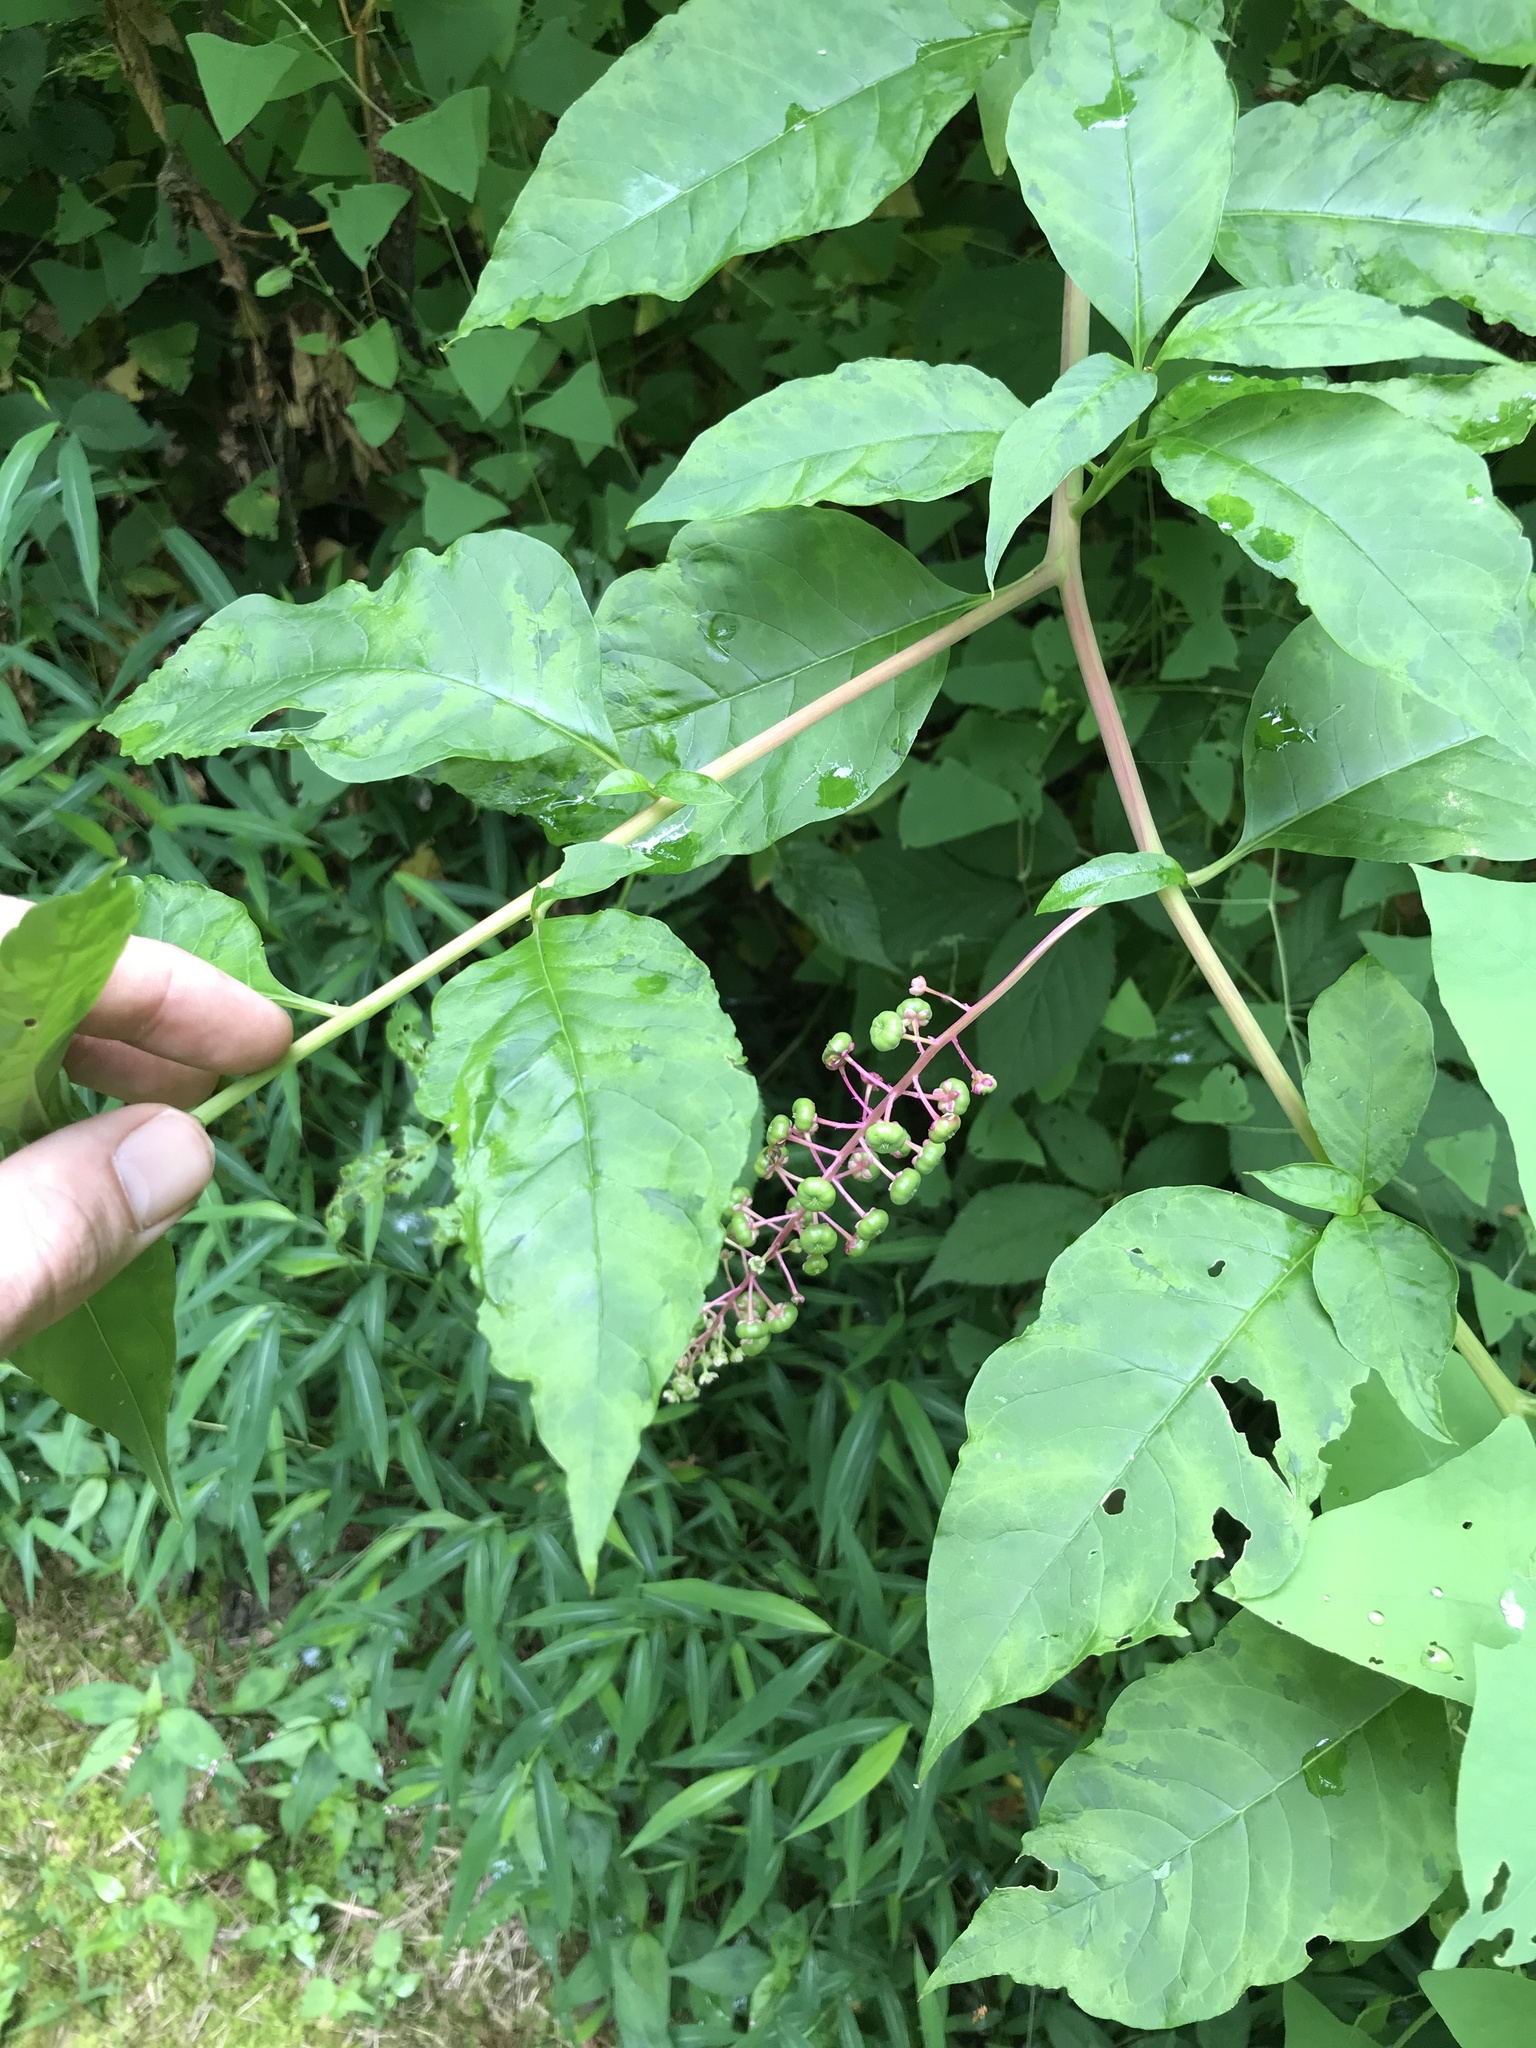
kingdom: Plantae
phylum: Tracheophyta
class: Magnoliopsida
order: Caryophyllales
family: Phytolaccaceae
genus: Phytolacca
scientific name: Phytolacca americana
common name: American pokeweed
